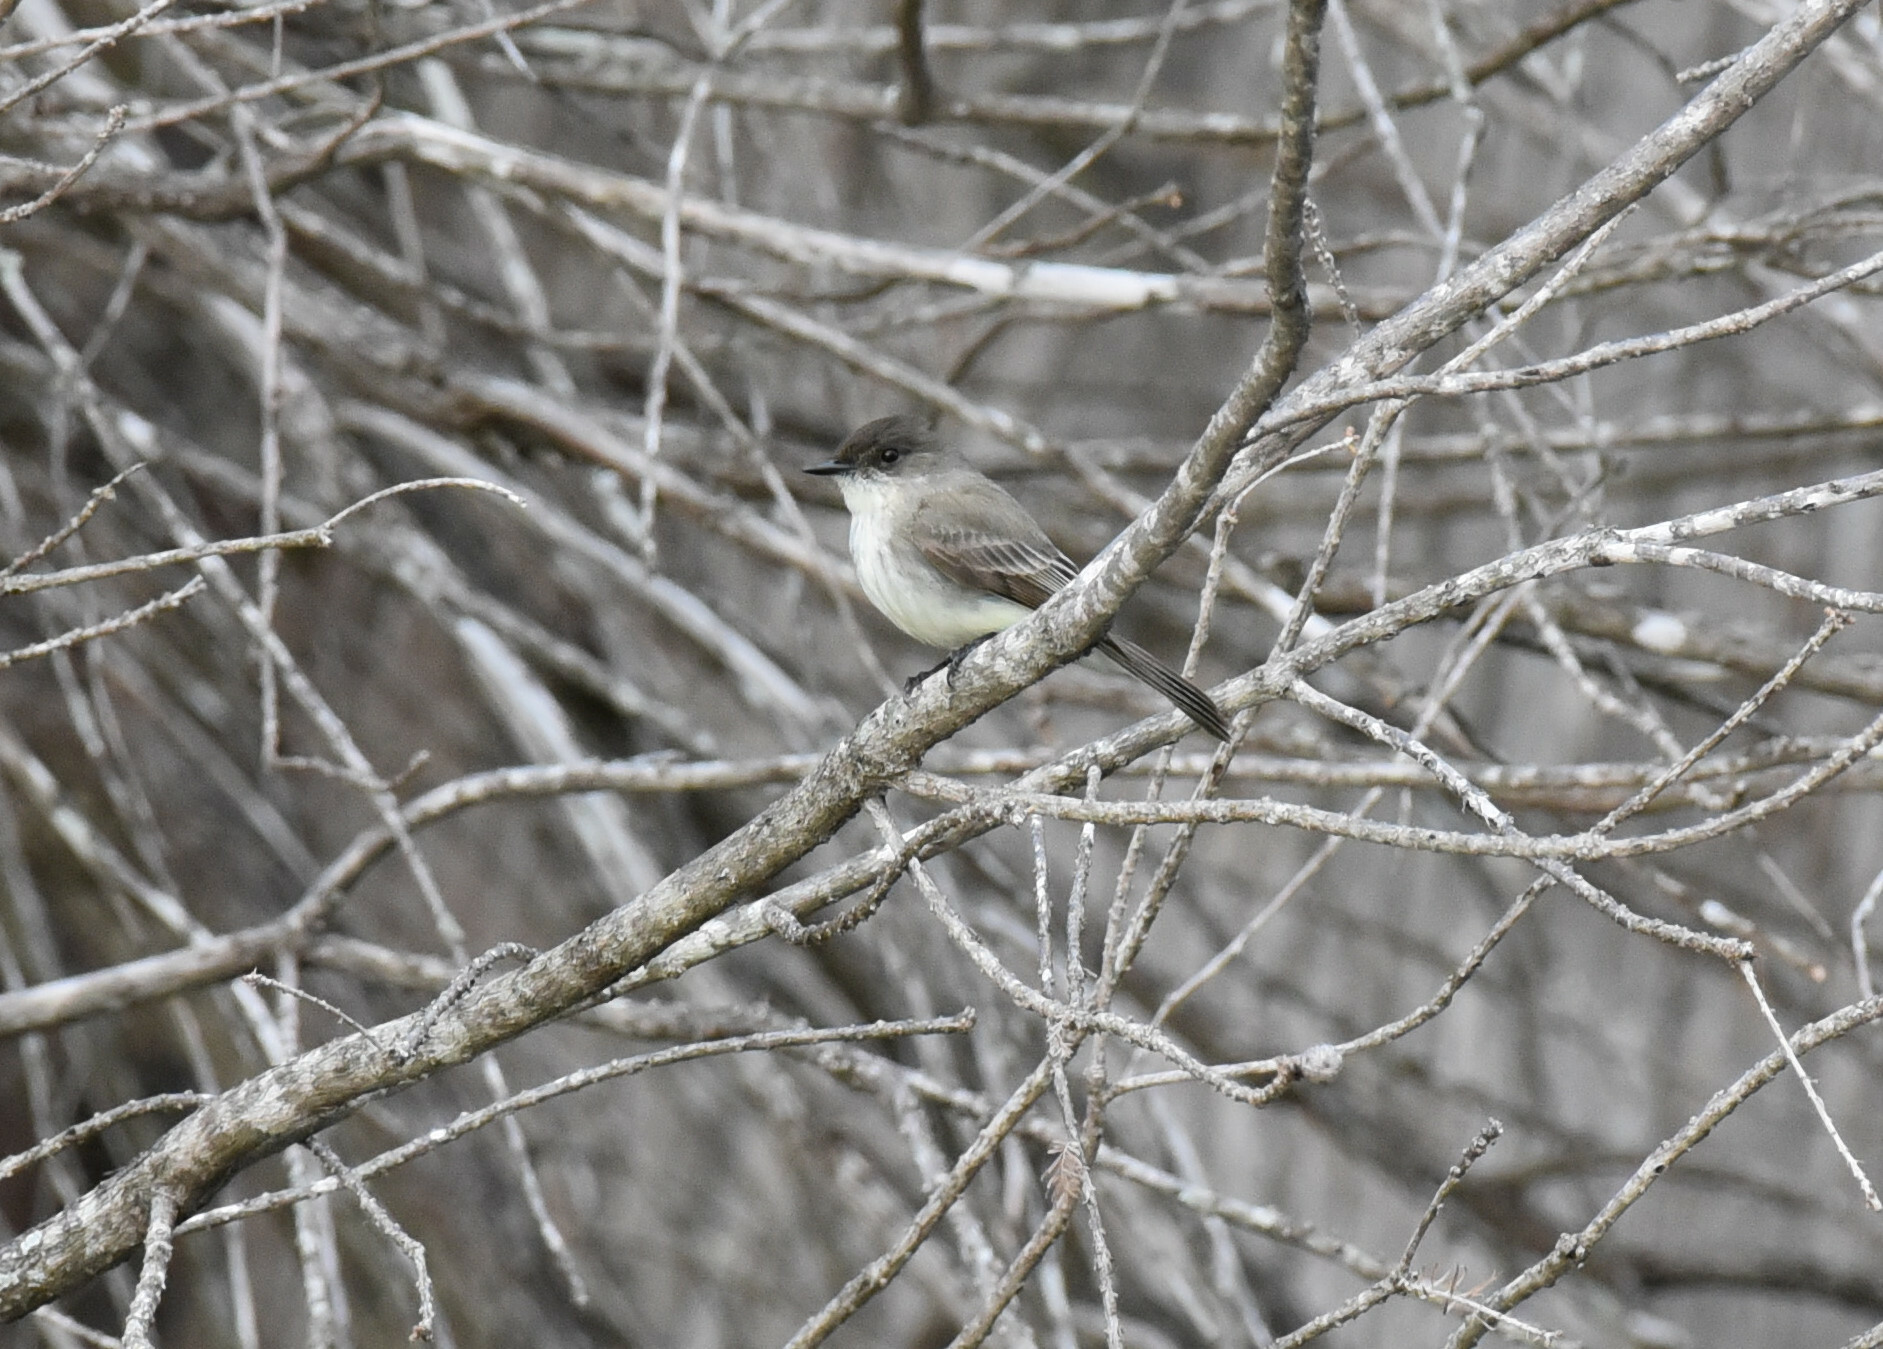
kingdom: Animalia
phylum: Chordata
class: Aves
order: Passeriformes
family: Tyrannidae
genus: Sayornis
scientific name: Sayornis phoebe
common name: Eastern phoebe
